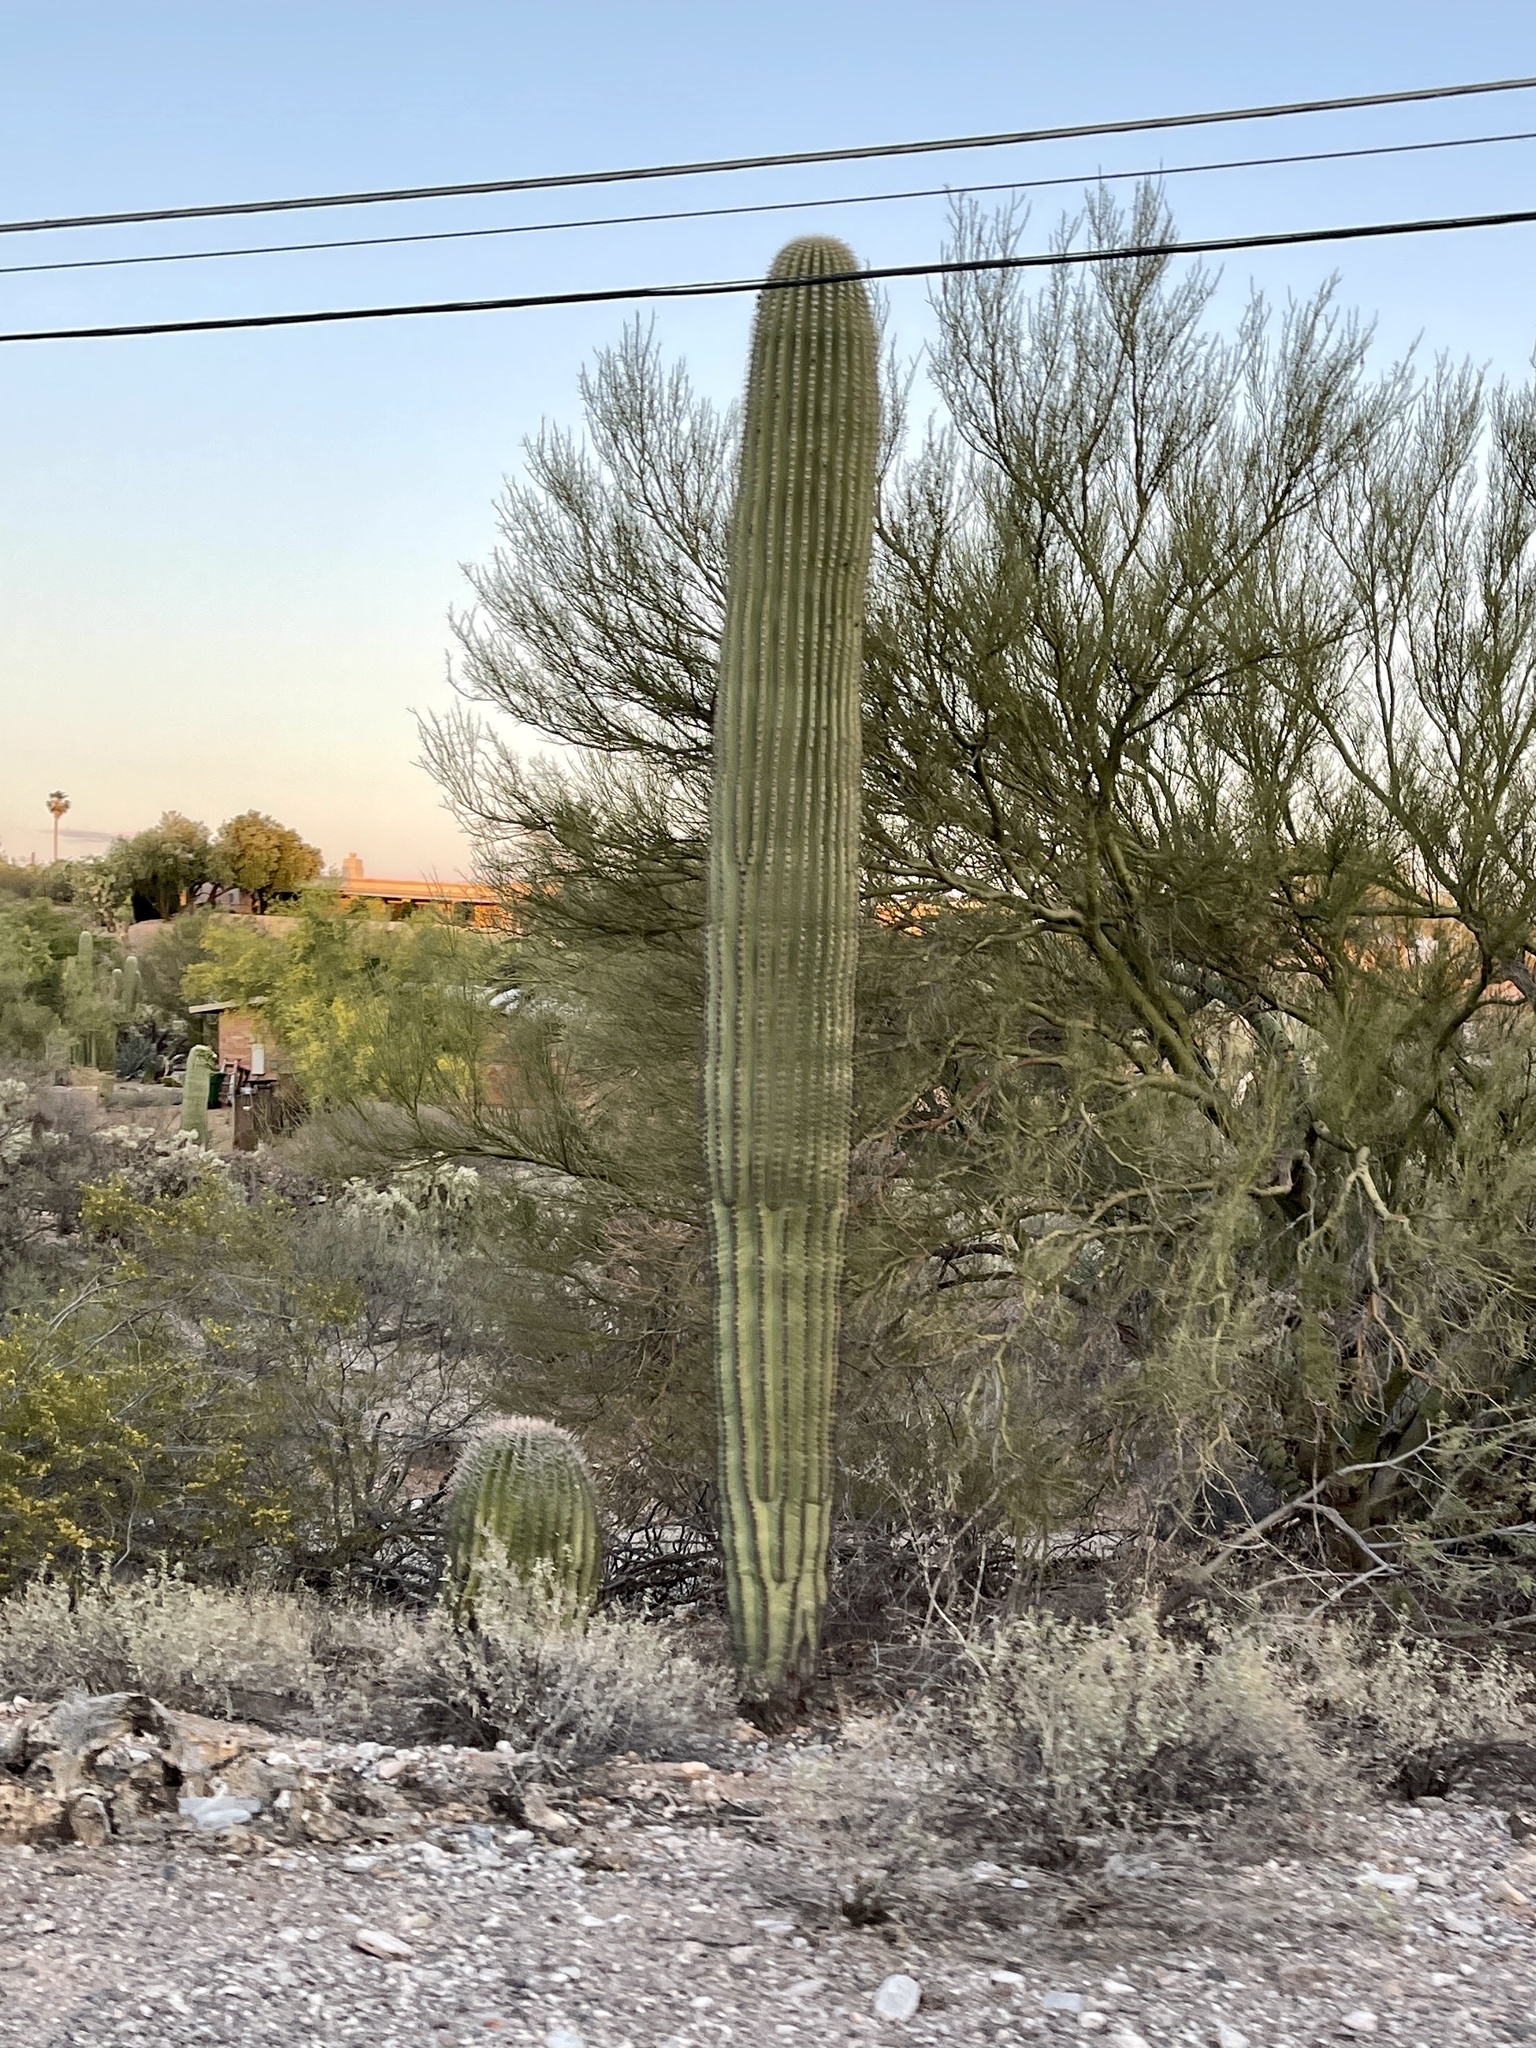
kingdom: Plantae
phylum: Tracheophyta
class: Magnoliopsida
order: Caryophyllales
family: Cactaceae
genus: Carnegiea
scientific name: Carnegiea gigantea
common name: Saguaro
